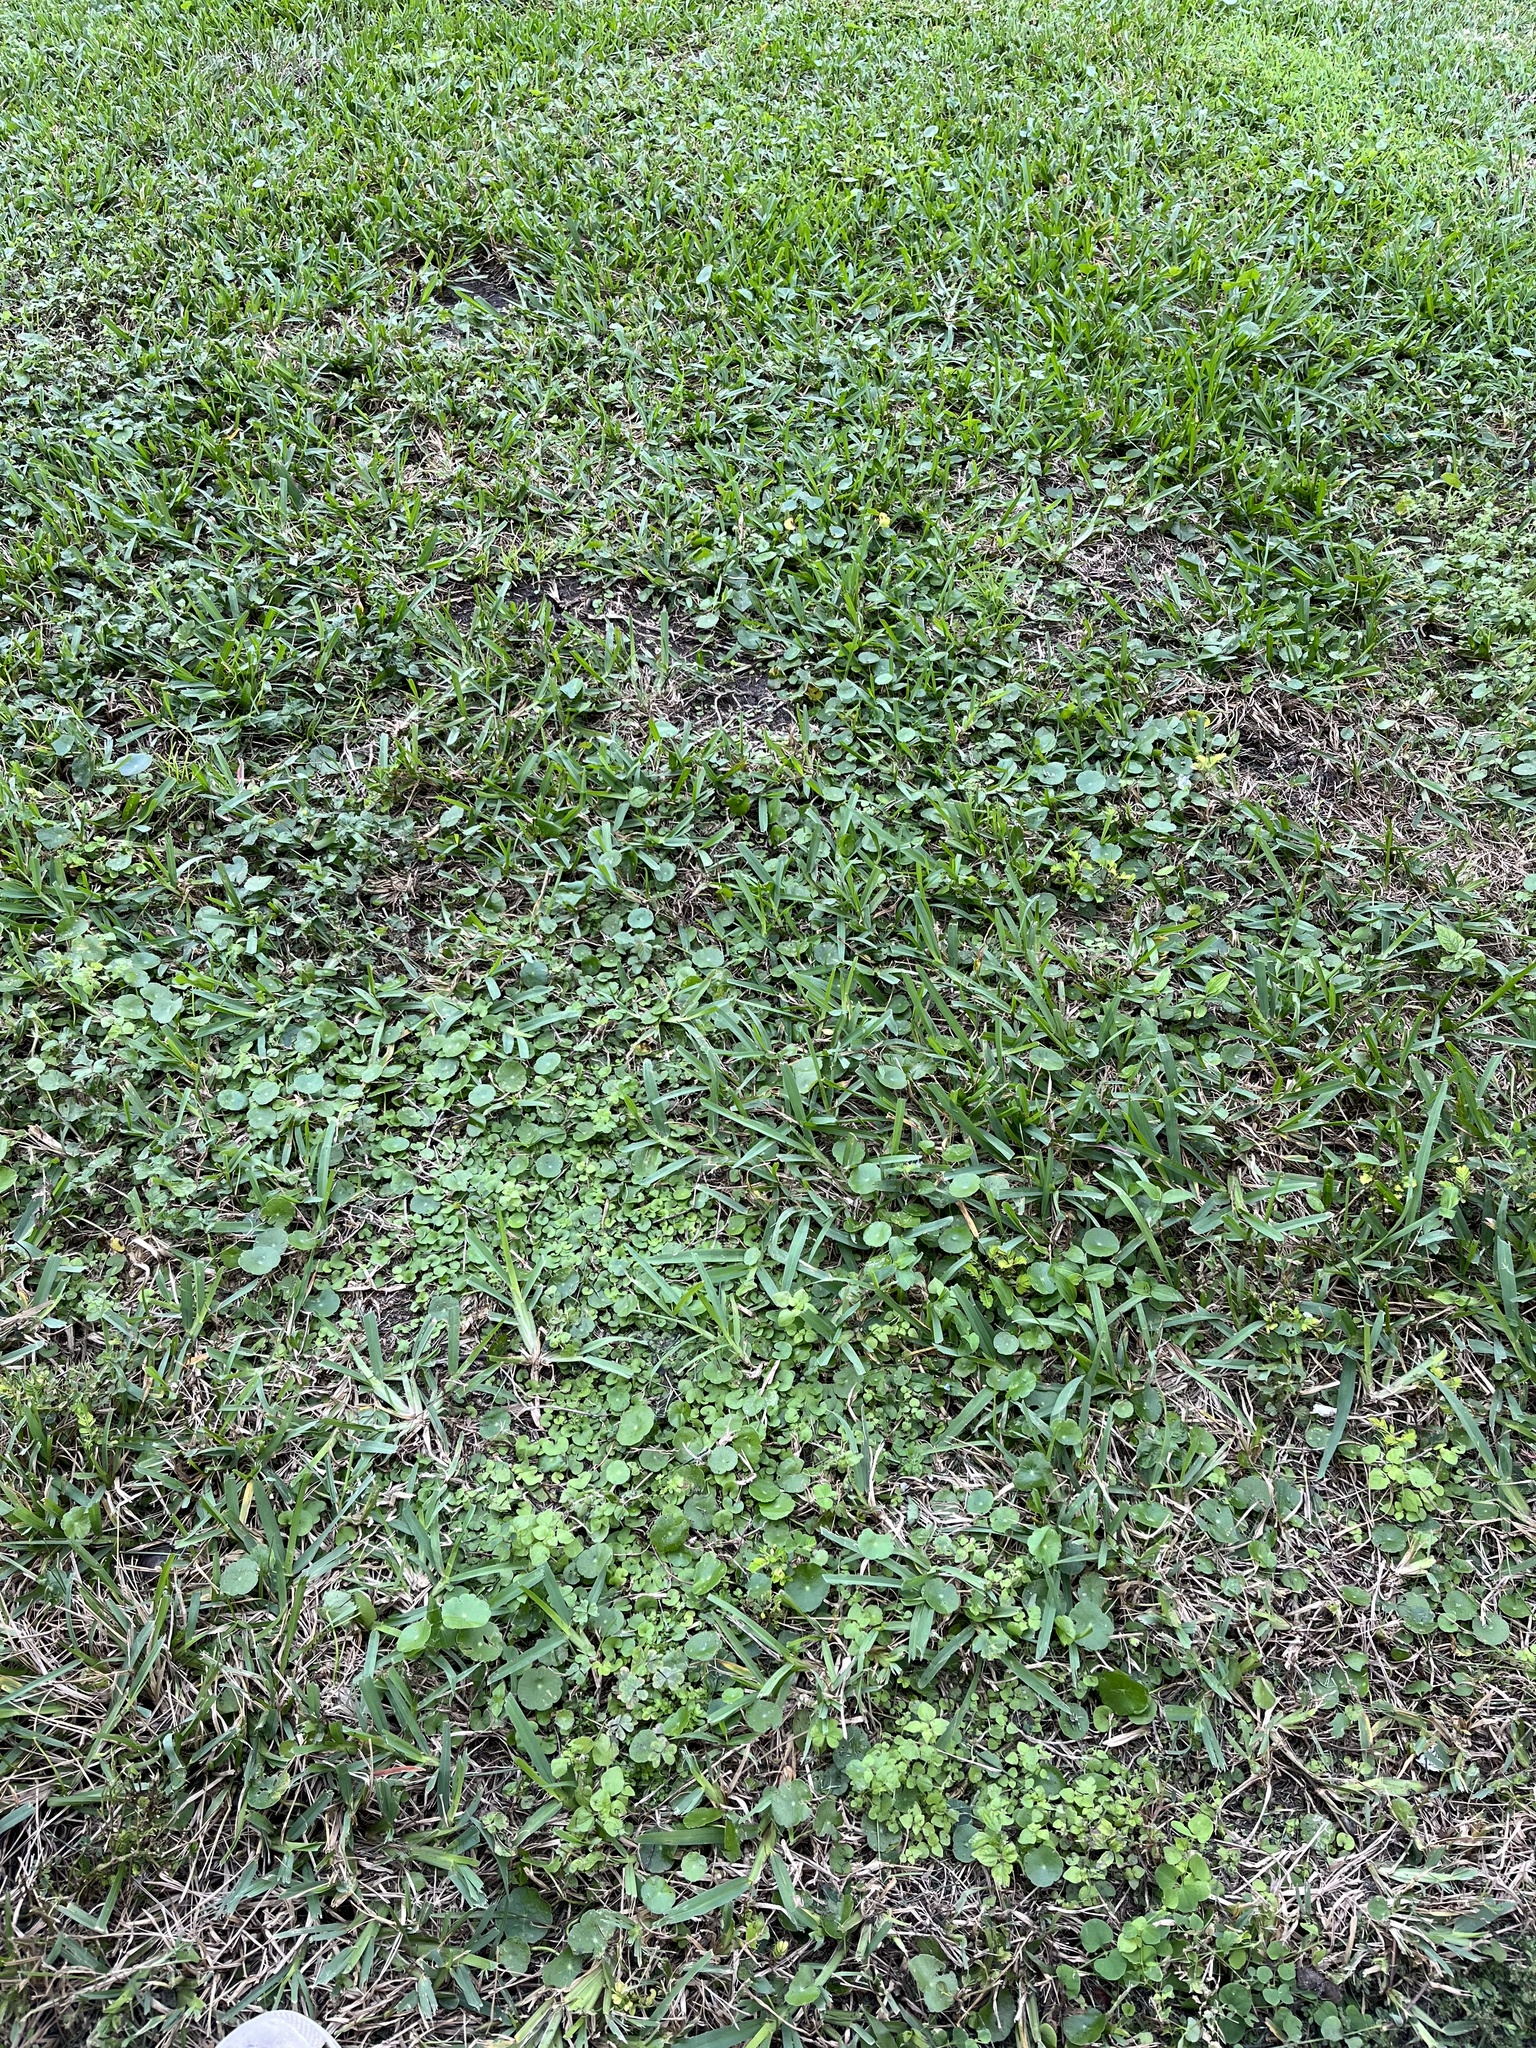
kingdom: Plantae
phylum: Tracheophyta
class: Magnoliopsida
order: Solanales
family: Convolvulaceae
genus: Dichondra
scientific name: Dichondra carolinensis
